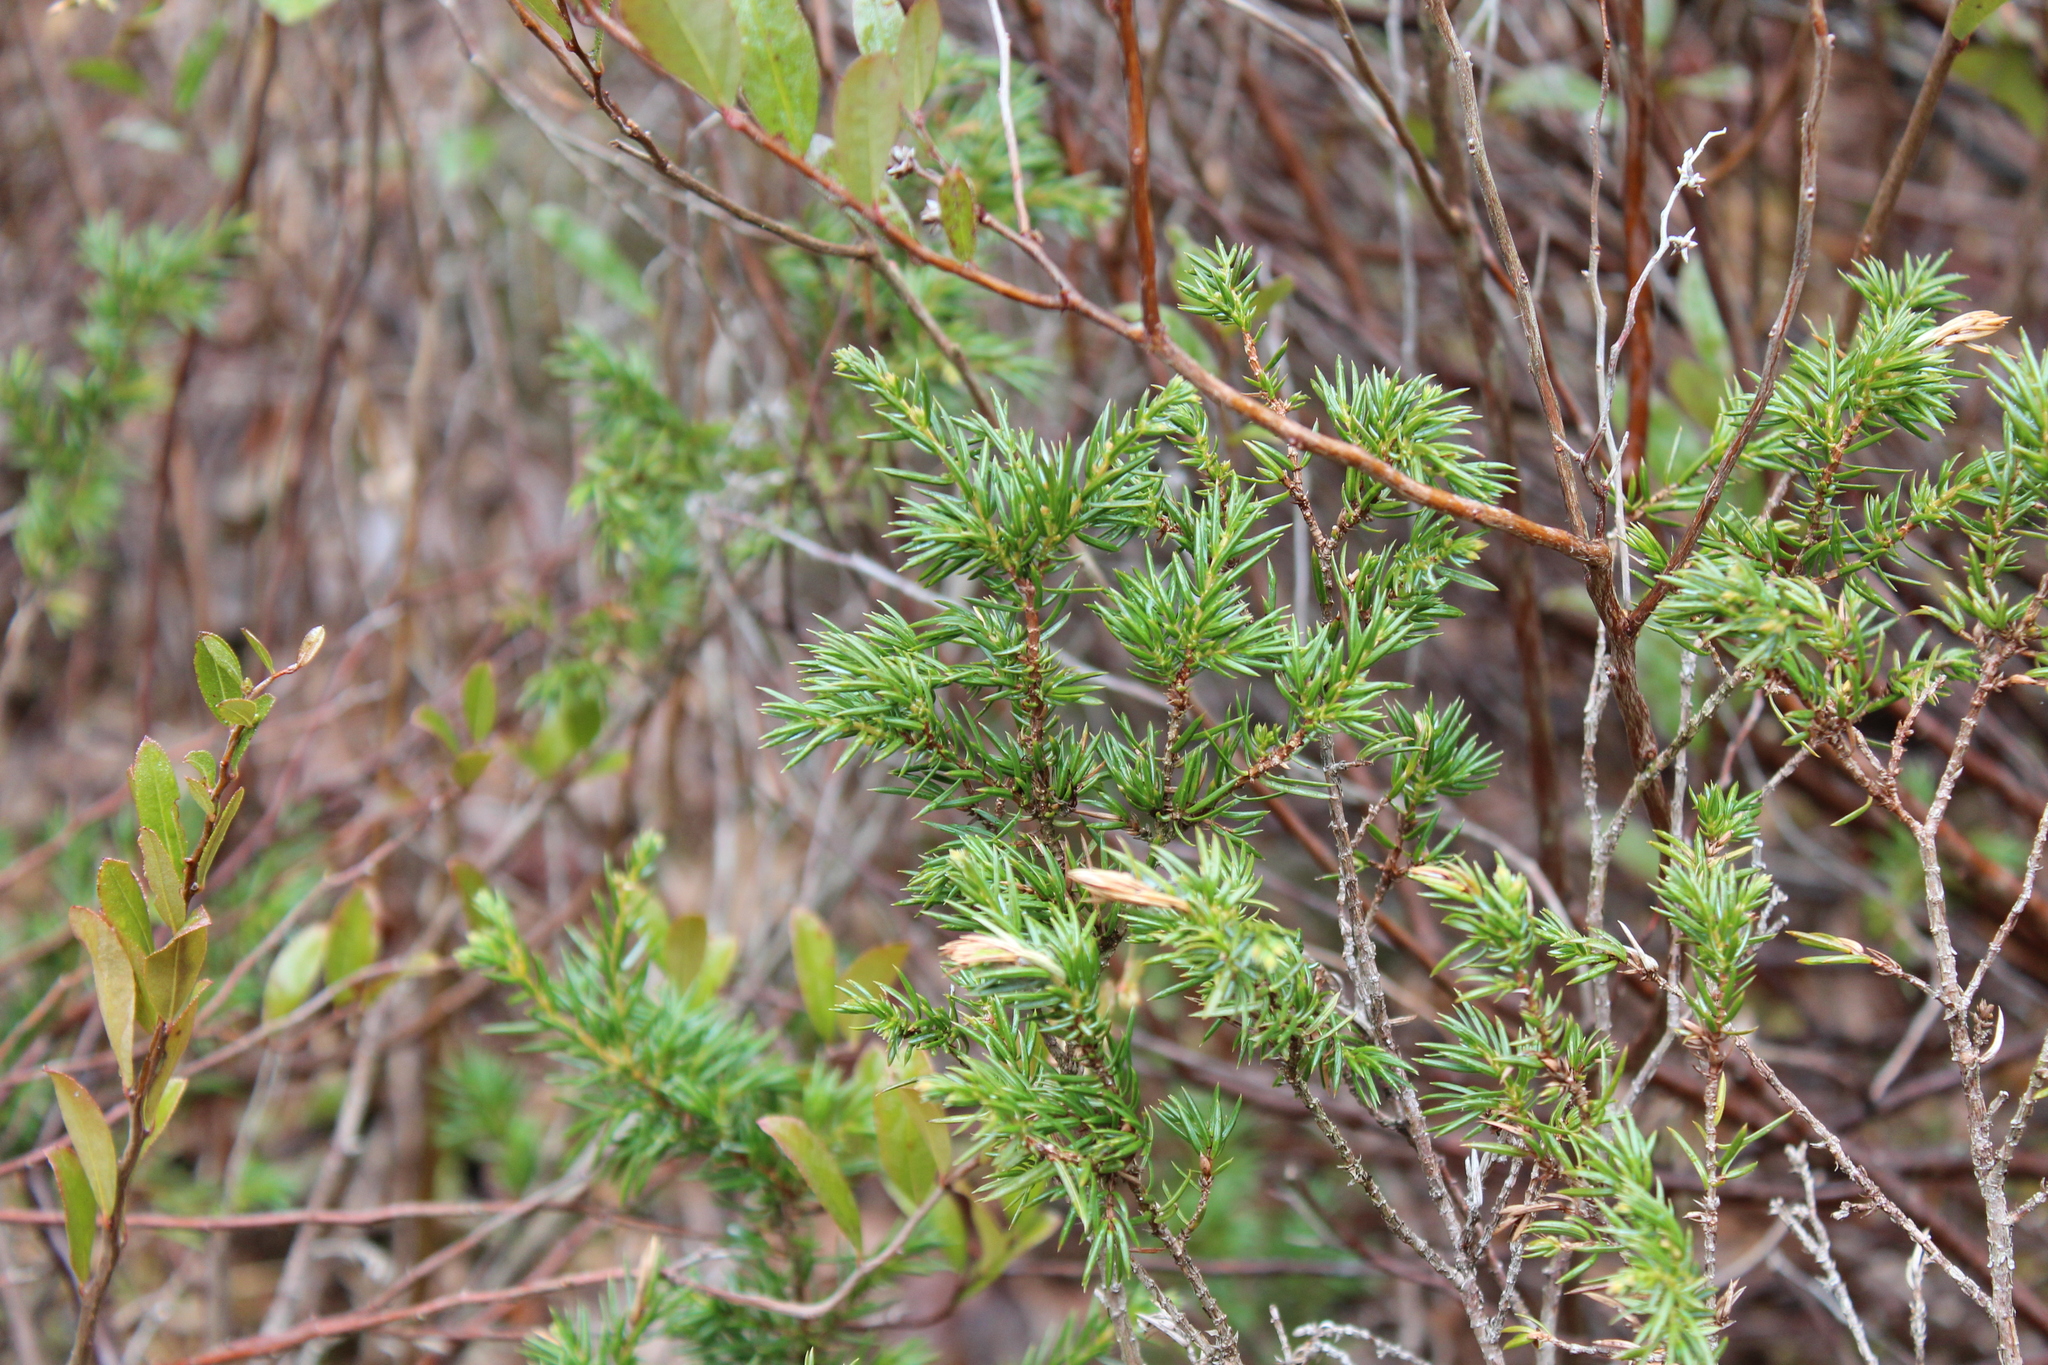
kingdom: Plantae
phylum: Tracheophyta
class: Pinopsida
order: Pinales
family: Cupressaceae
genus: Juniperus
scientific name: Juniperus communis
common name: Common juniper
